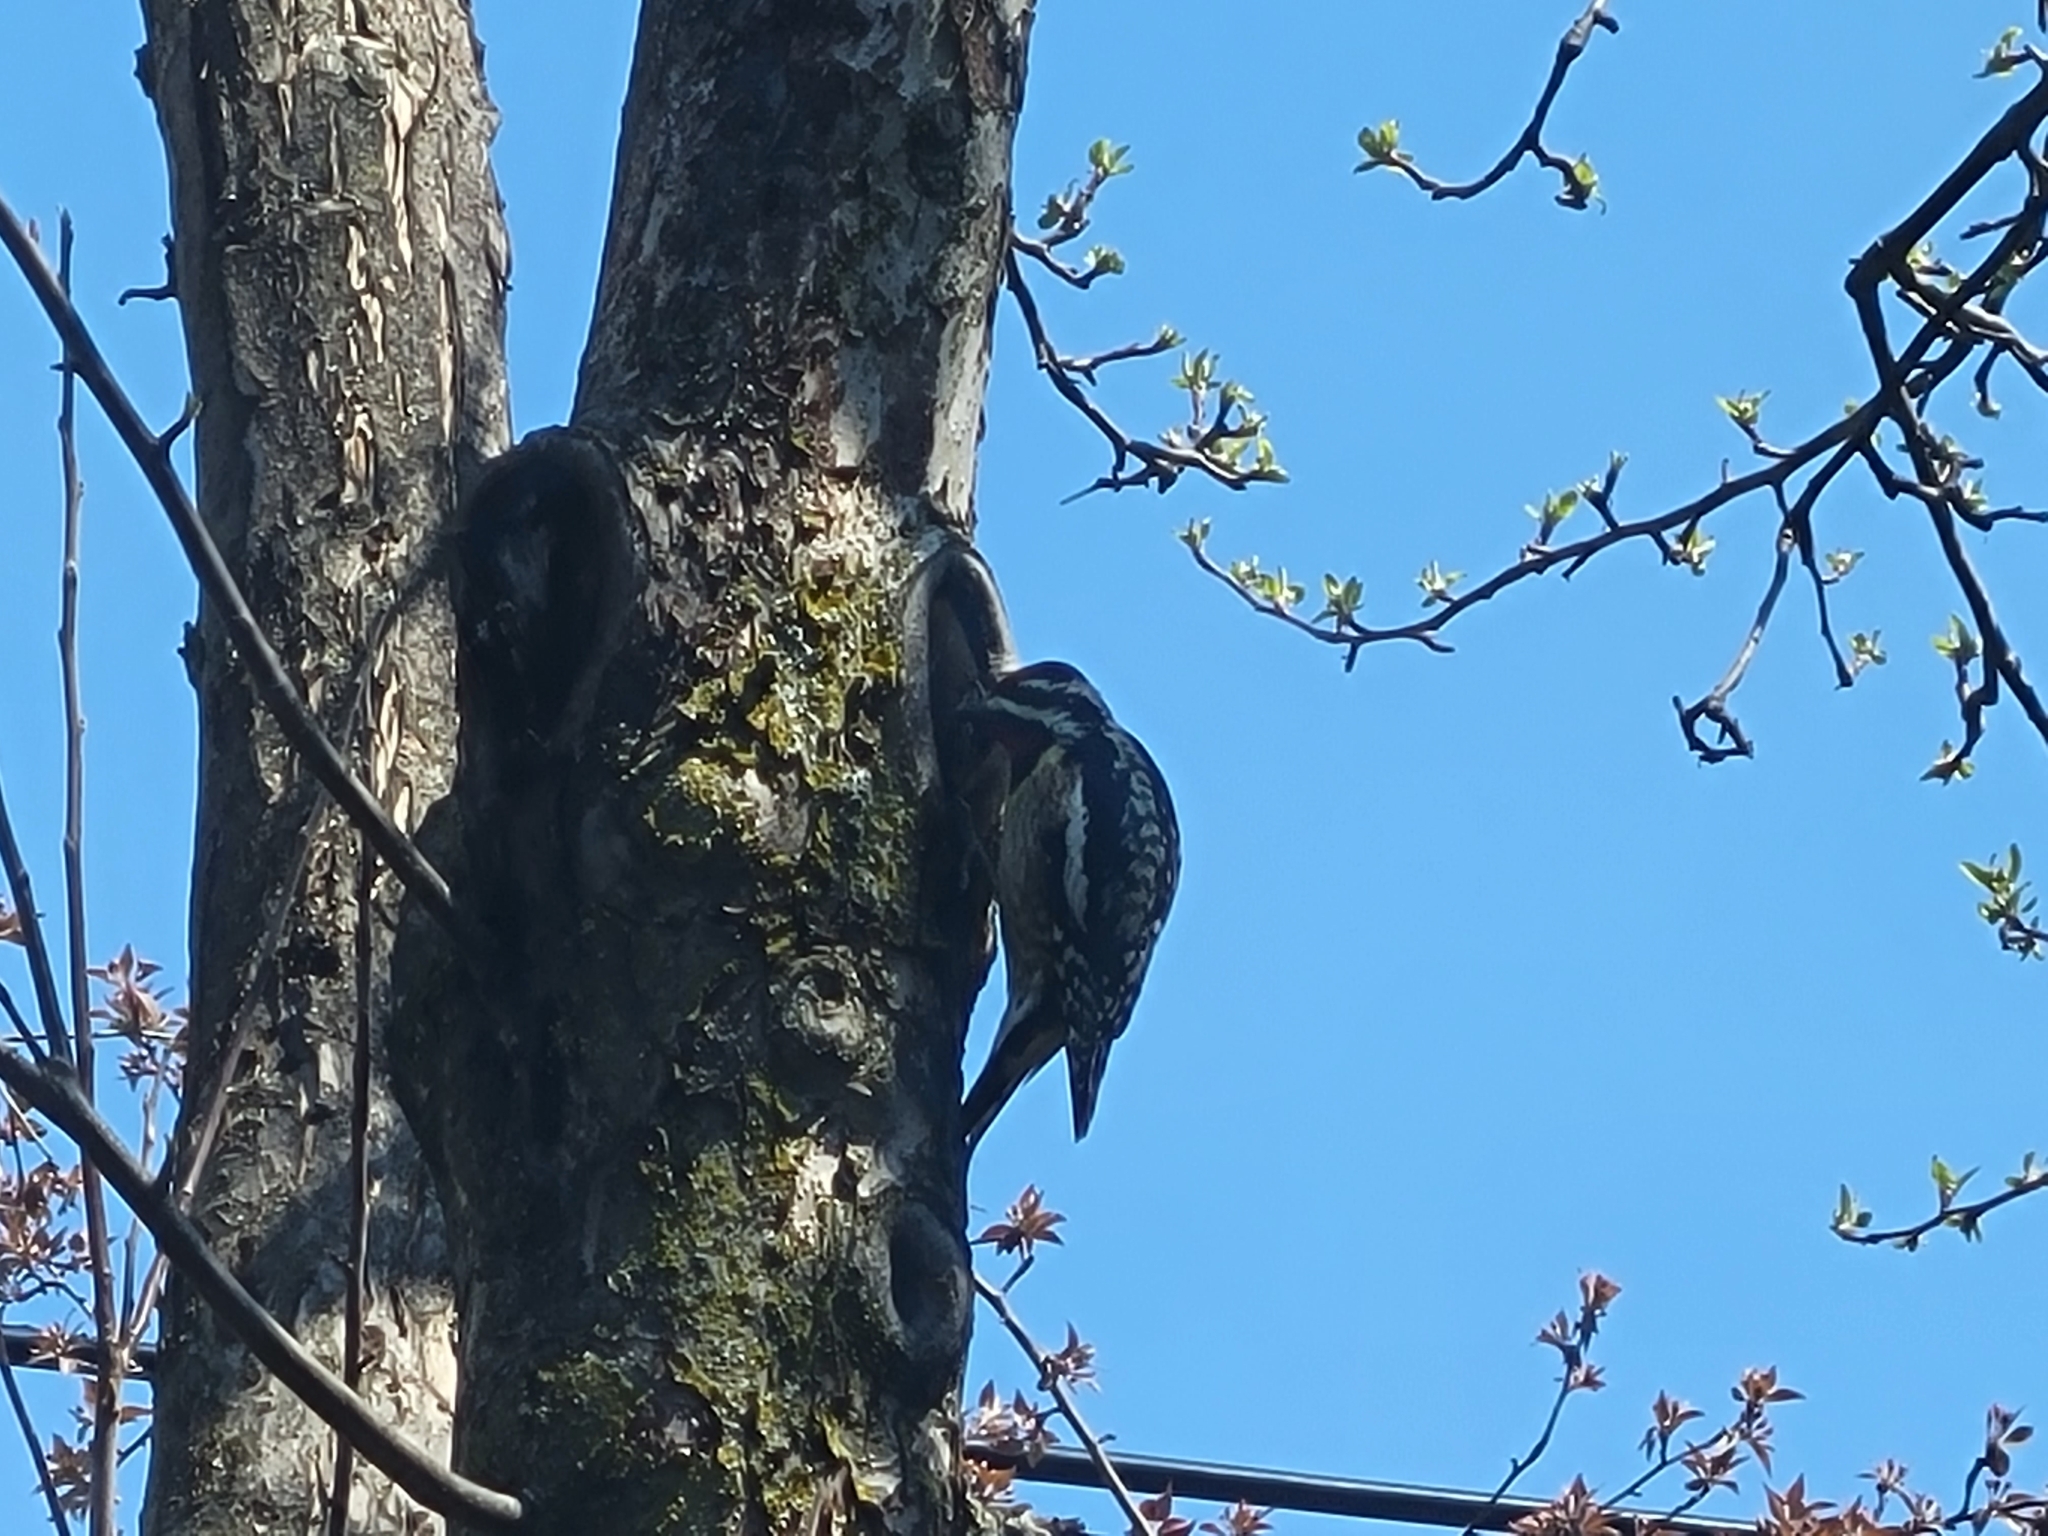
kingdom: Animalia
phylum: Chordata
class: Aves
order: Piciformes
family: Picidae
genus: Sphyrapicus
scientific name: Sphyrapicus varius
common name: Yellow-bellied sapsucker
